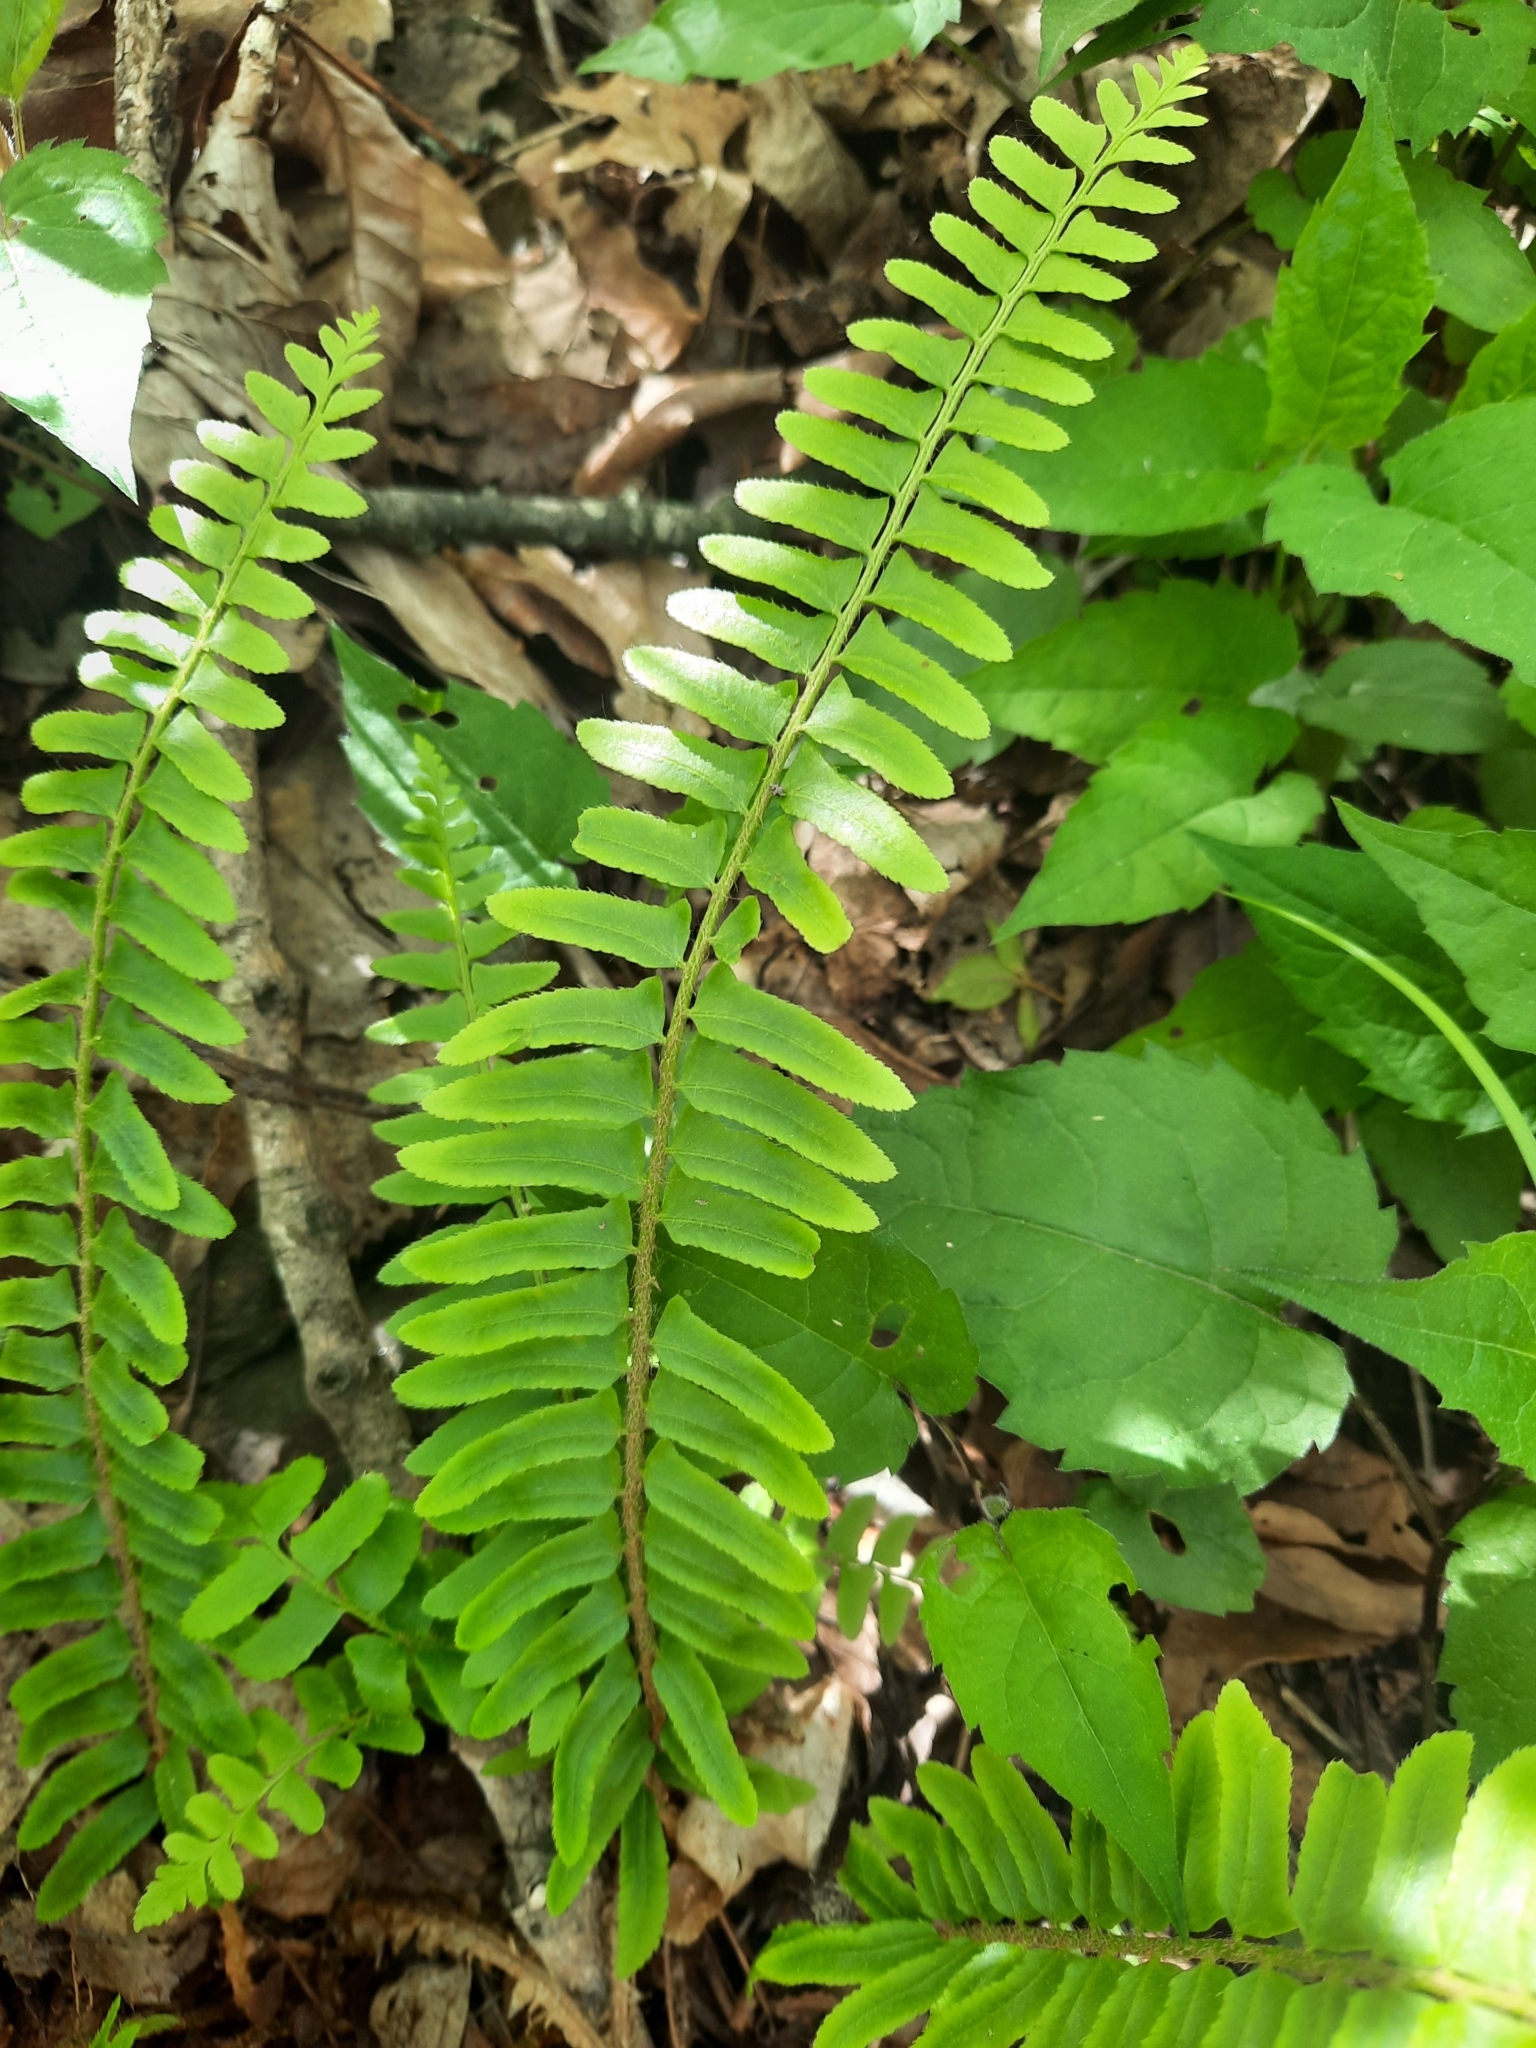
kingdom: Plantae
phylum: Tracheophyta
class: Polypodiopsida
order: Polypodiales
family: Dryopteridaceae
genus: Polystichum
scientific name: Polystichum acrostichoides
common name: Christmas fern
